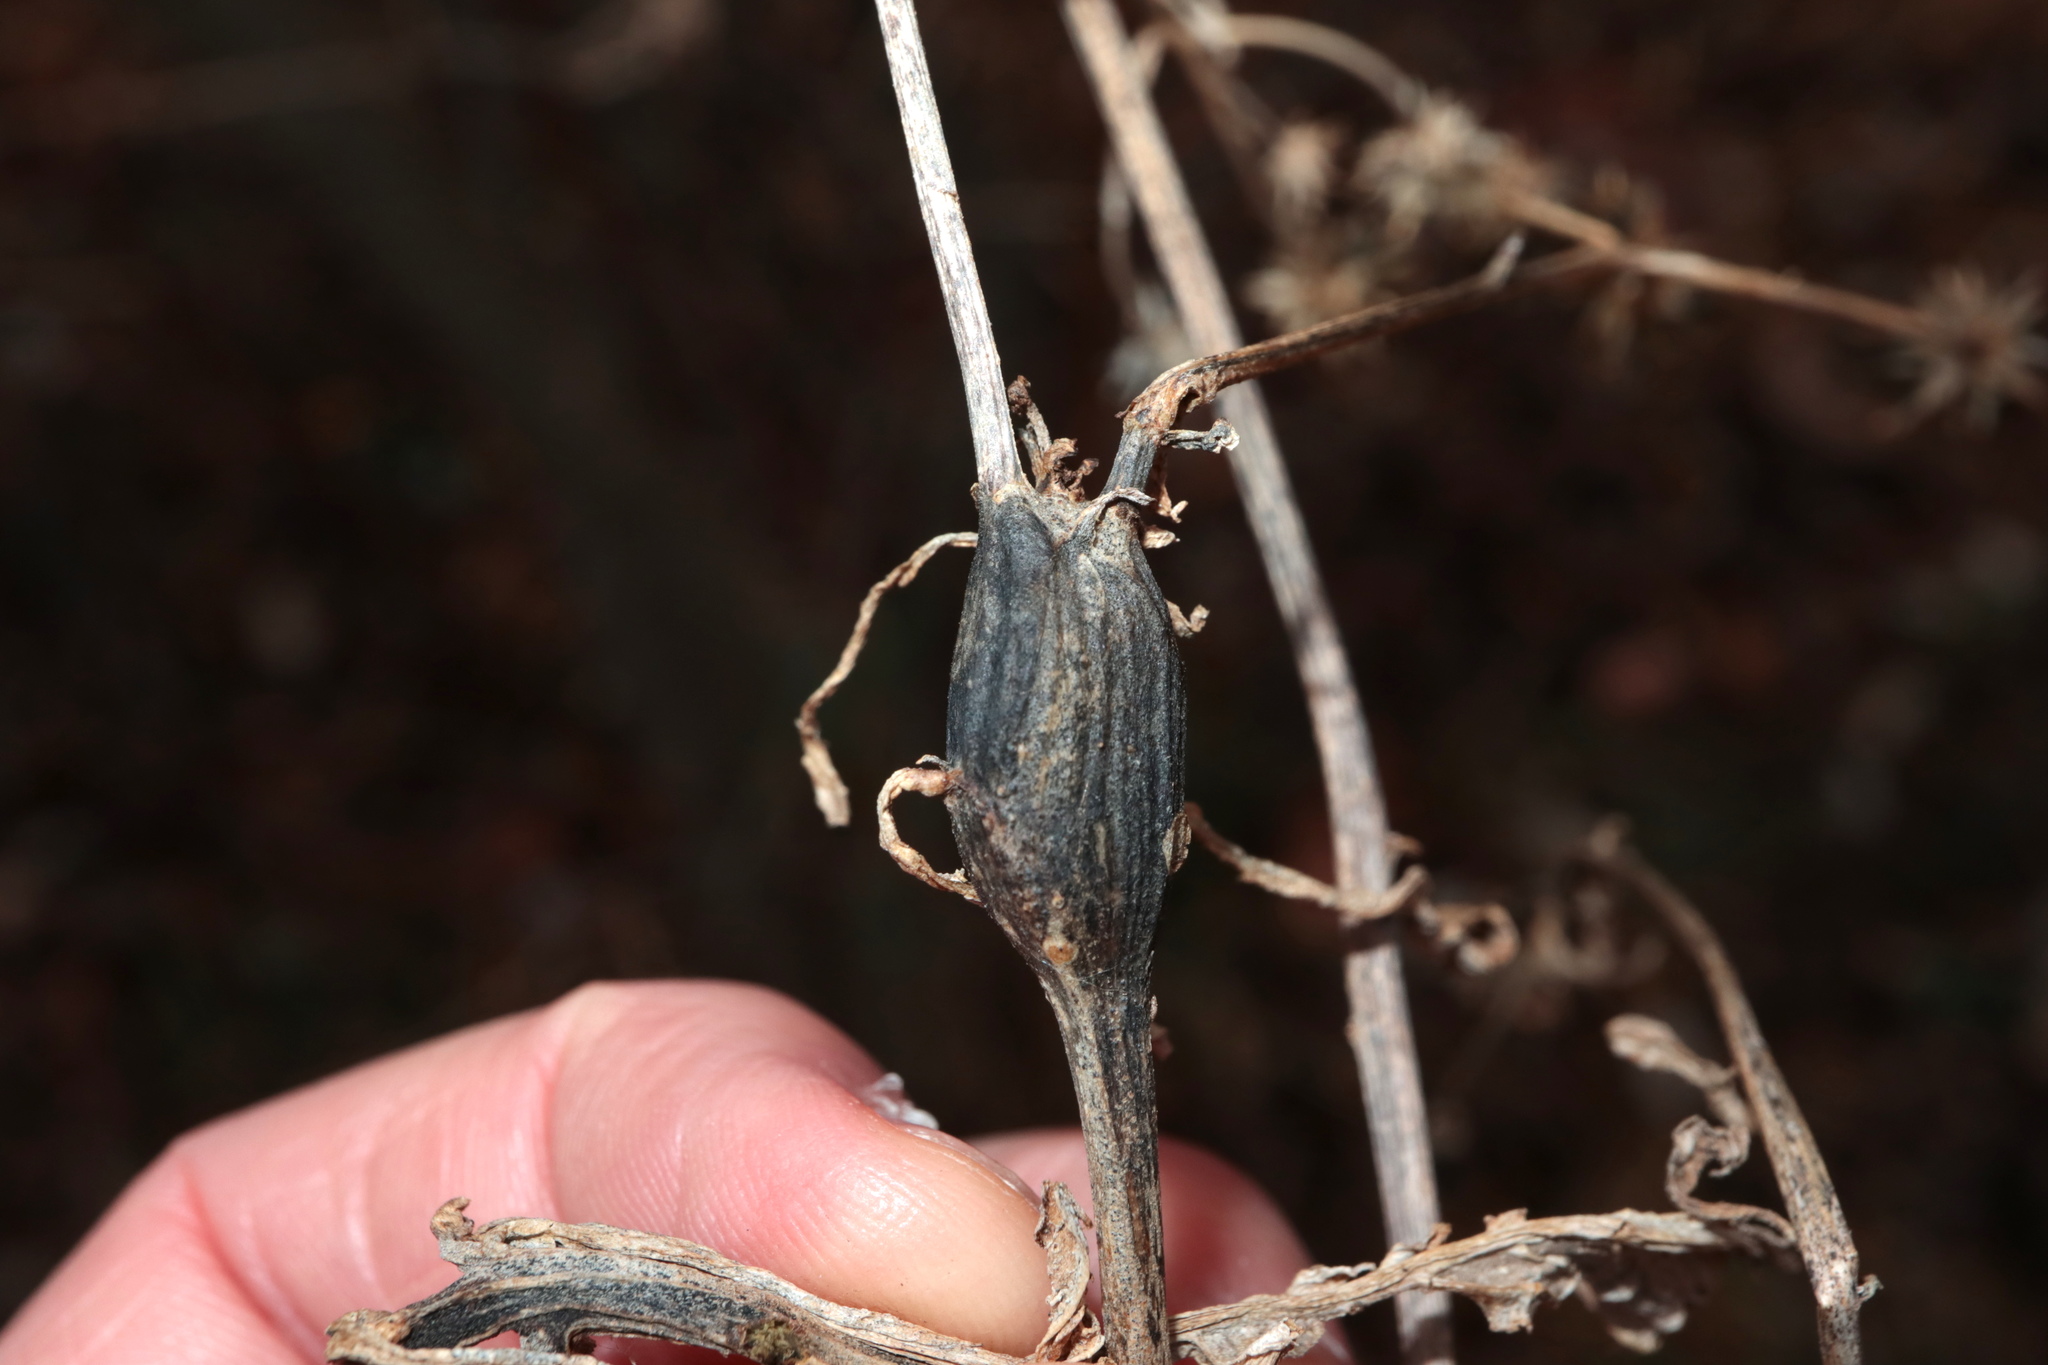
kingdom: Animalia
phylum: Arthropoda
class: Insecta
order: Diptera
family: Cecidomyiidae
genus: Neolasioptera
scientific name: Neolasioptera verbesinae
